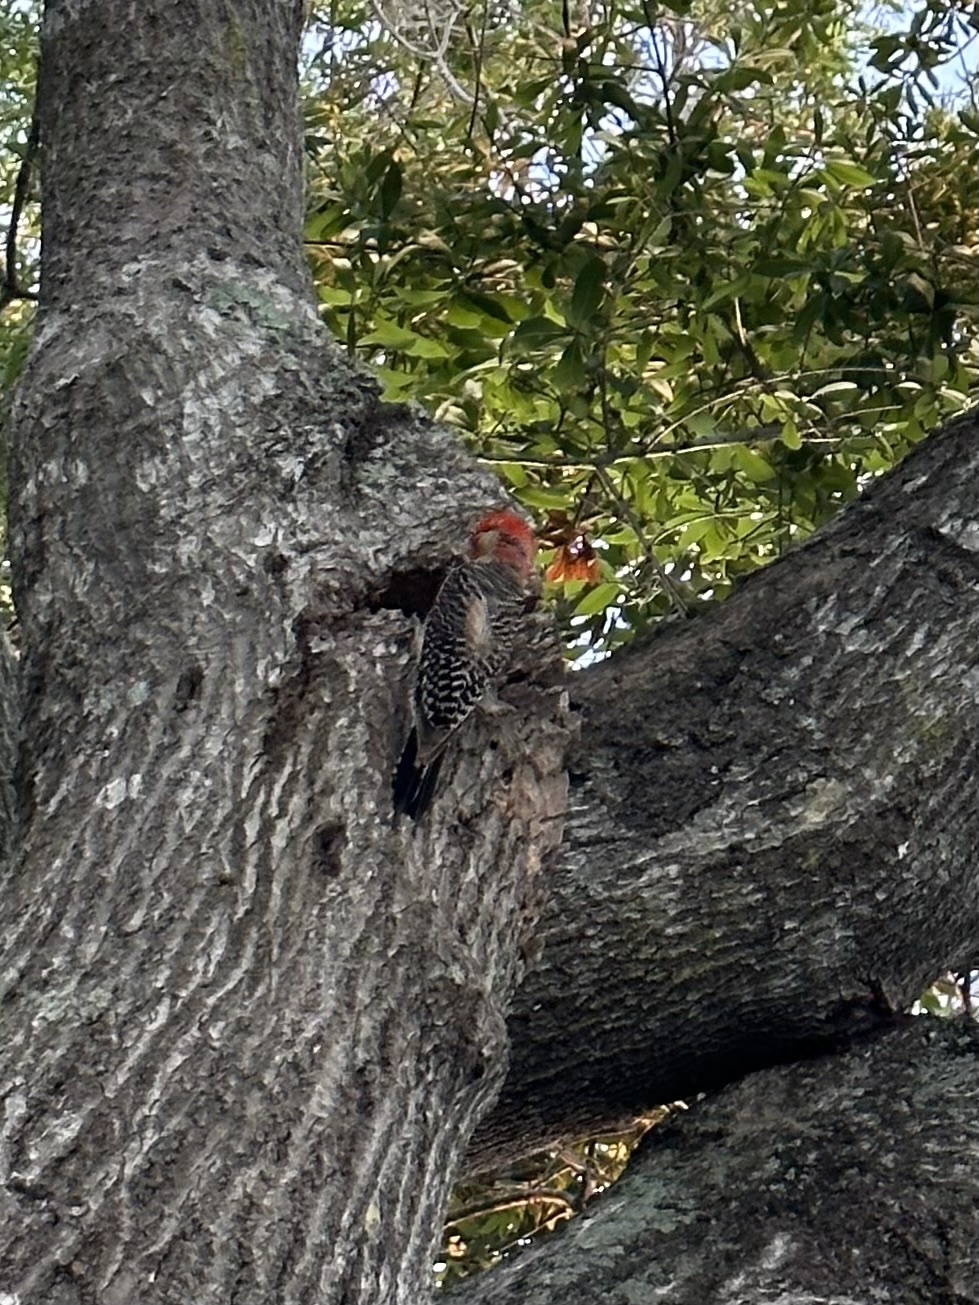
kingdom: Animalia
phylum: Chordata
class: Aves
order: Piciformes
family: Picidae
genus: Melanerpes
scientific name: Melanerpes carolinus
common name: Red-bellied woodpecker
